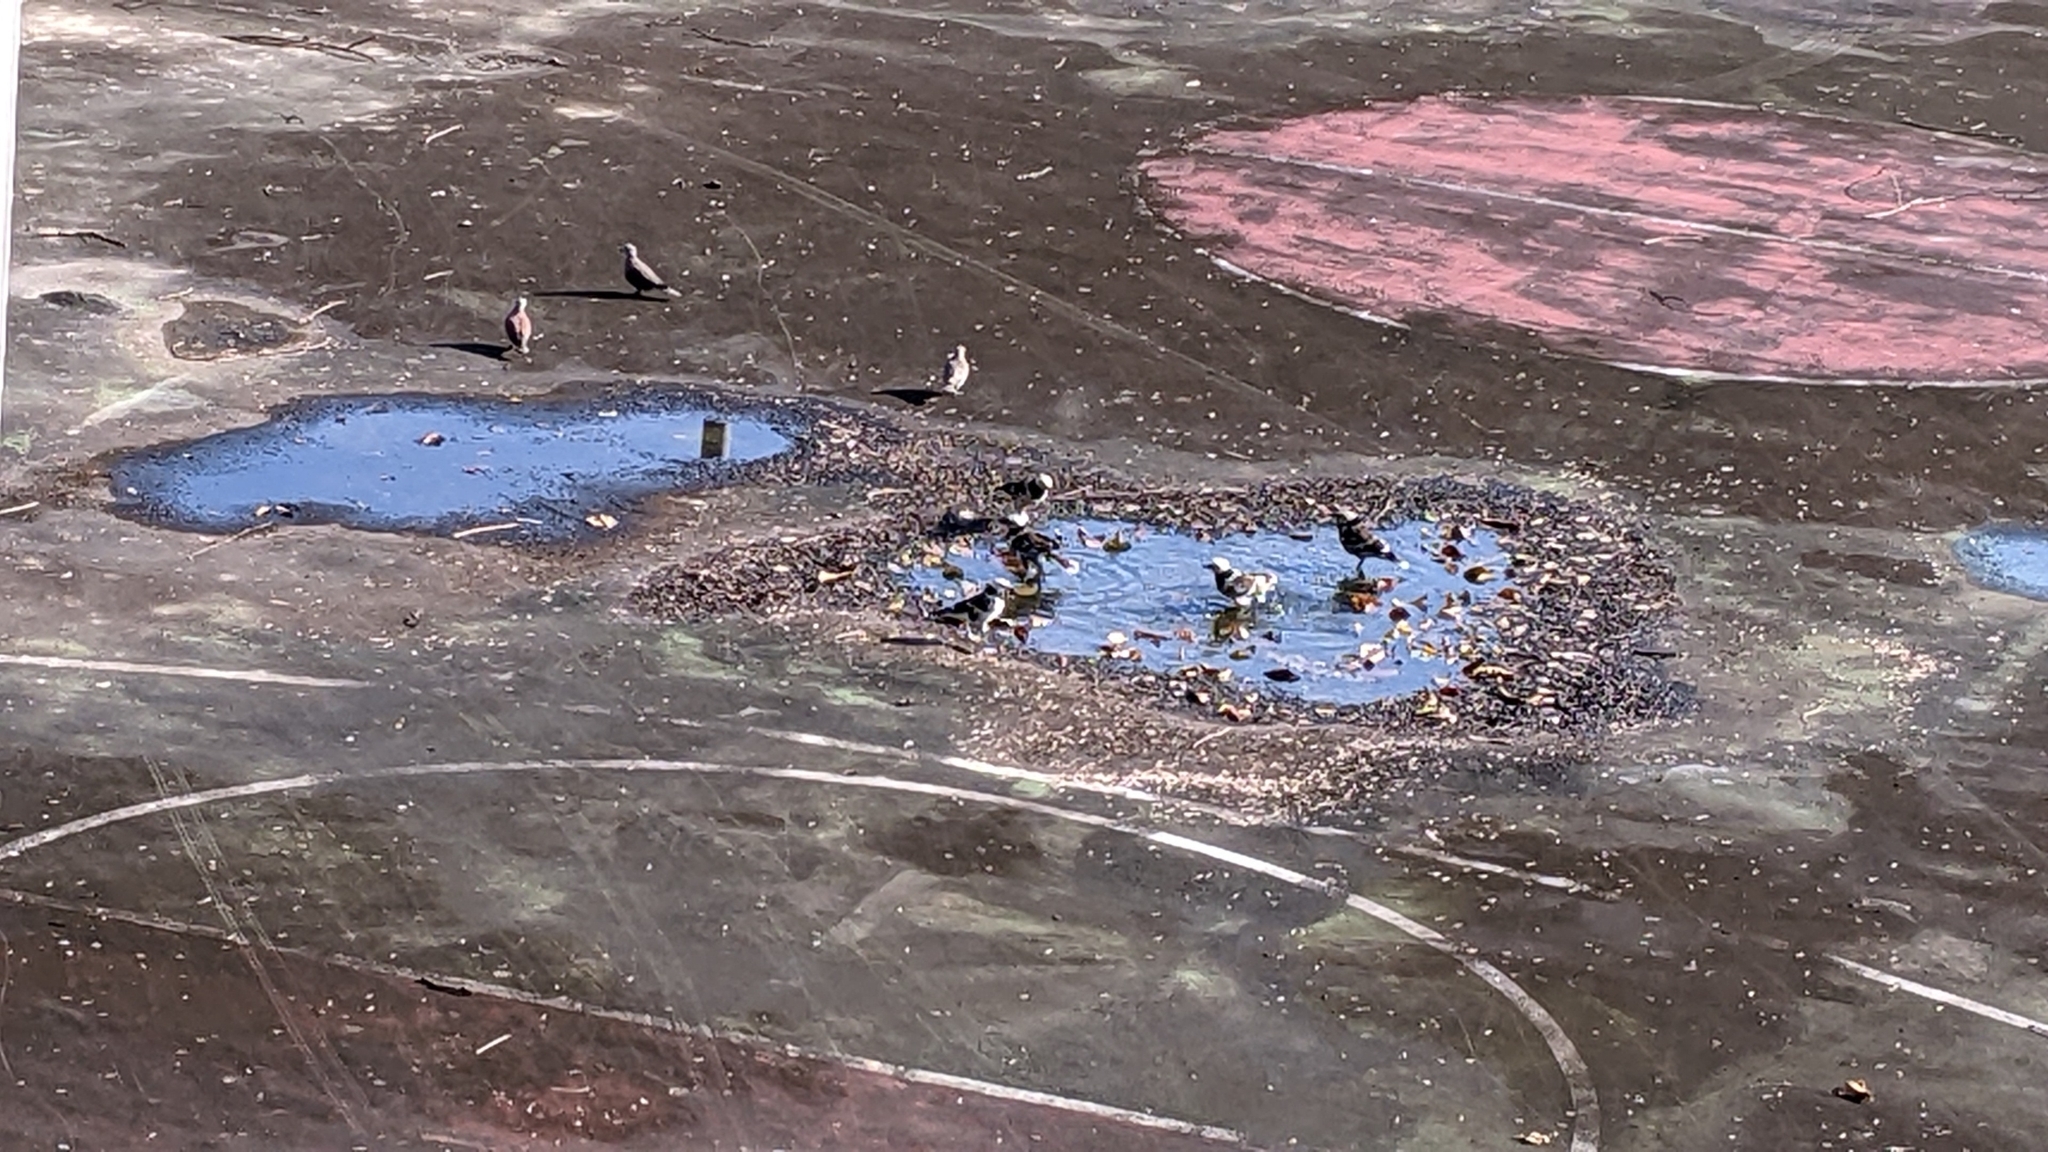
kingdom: Animalia
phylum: Chordata
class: Aves
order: Passeriformes
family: Sturnidae
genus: Gracupica
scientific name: Gracupica nigricollis
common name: Black-collared starling
